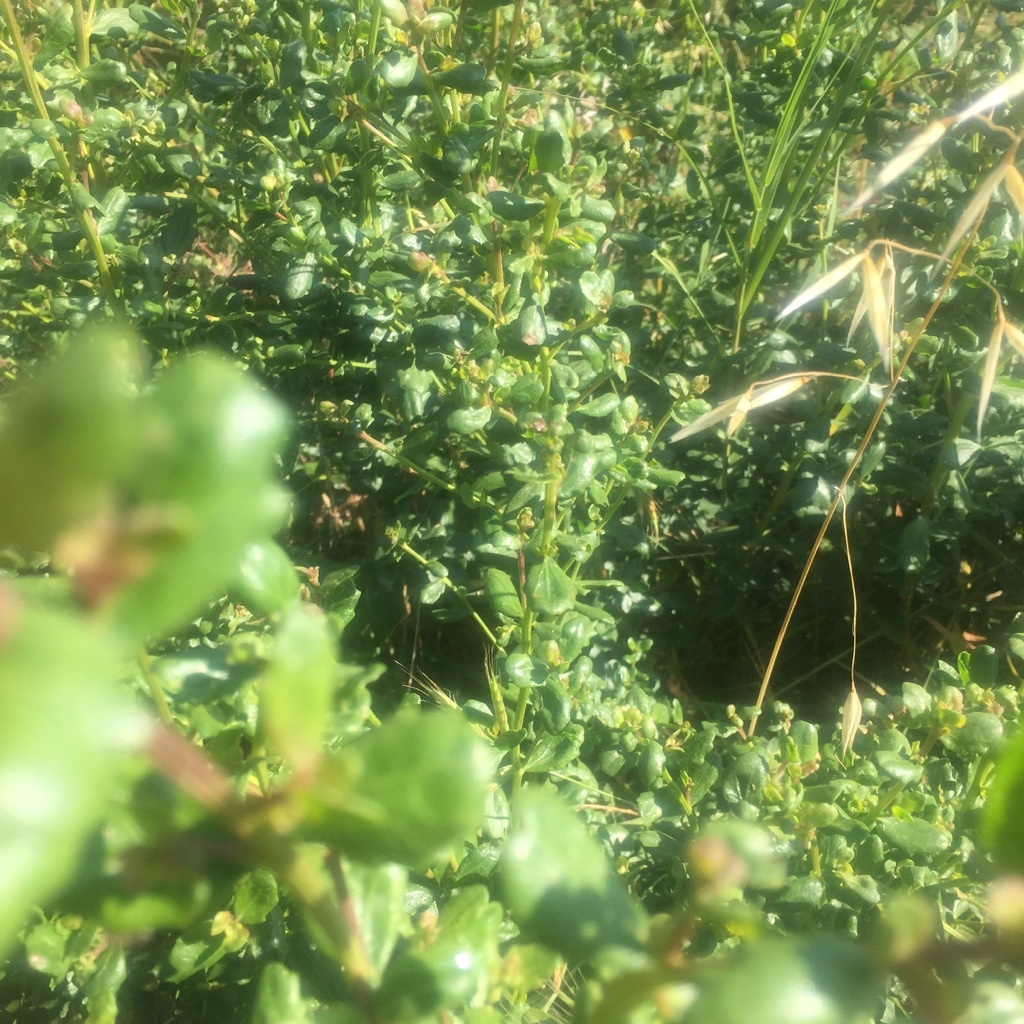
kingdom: Plantae
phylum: Tracheophyta
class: Magnoliopsida
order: Asterales
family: Asteraceae
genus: Baccharis
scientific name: Baccharis pilularis
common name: Coyotebrush
